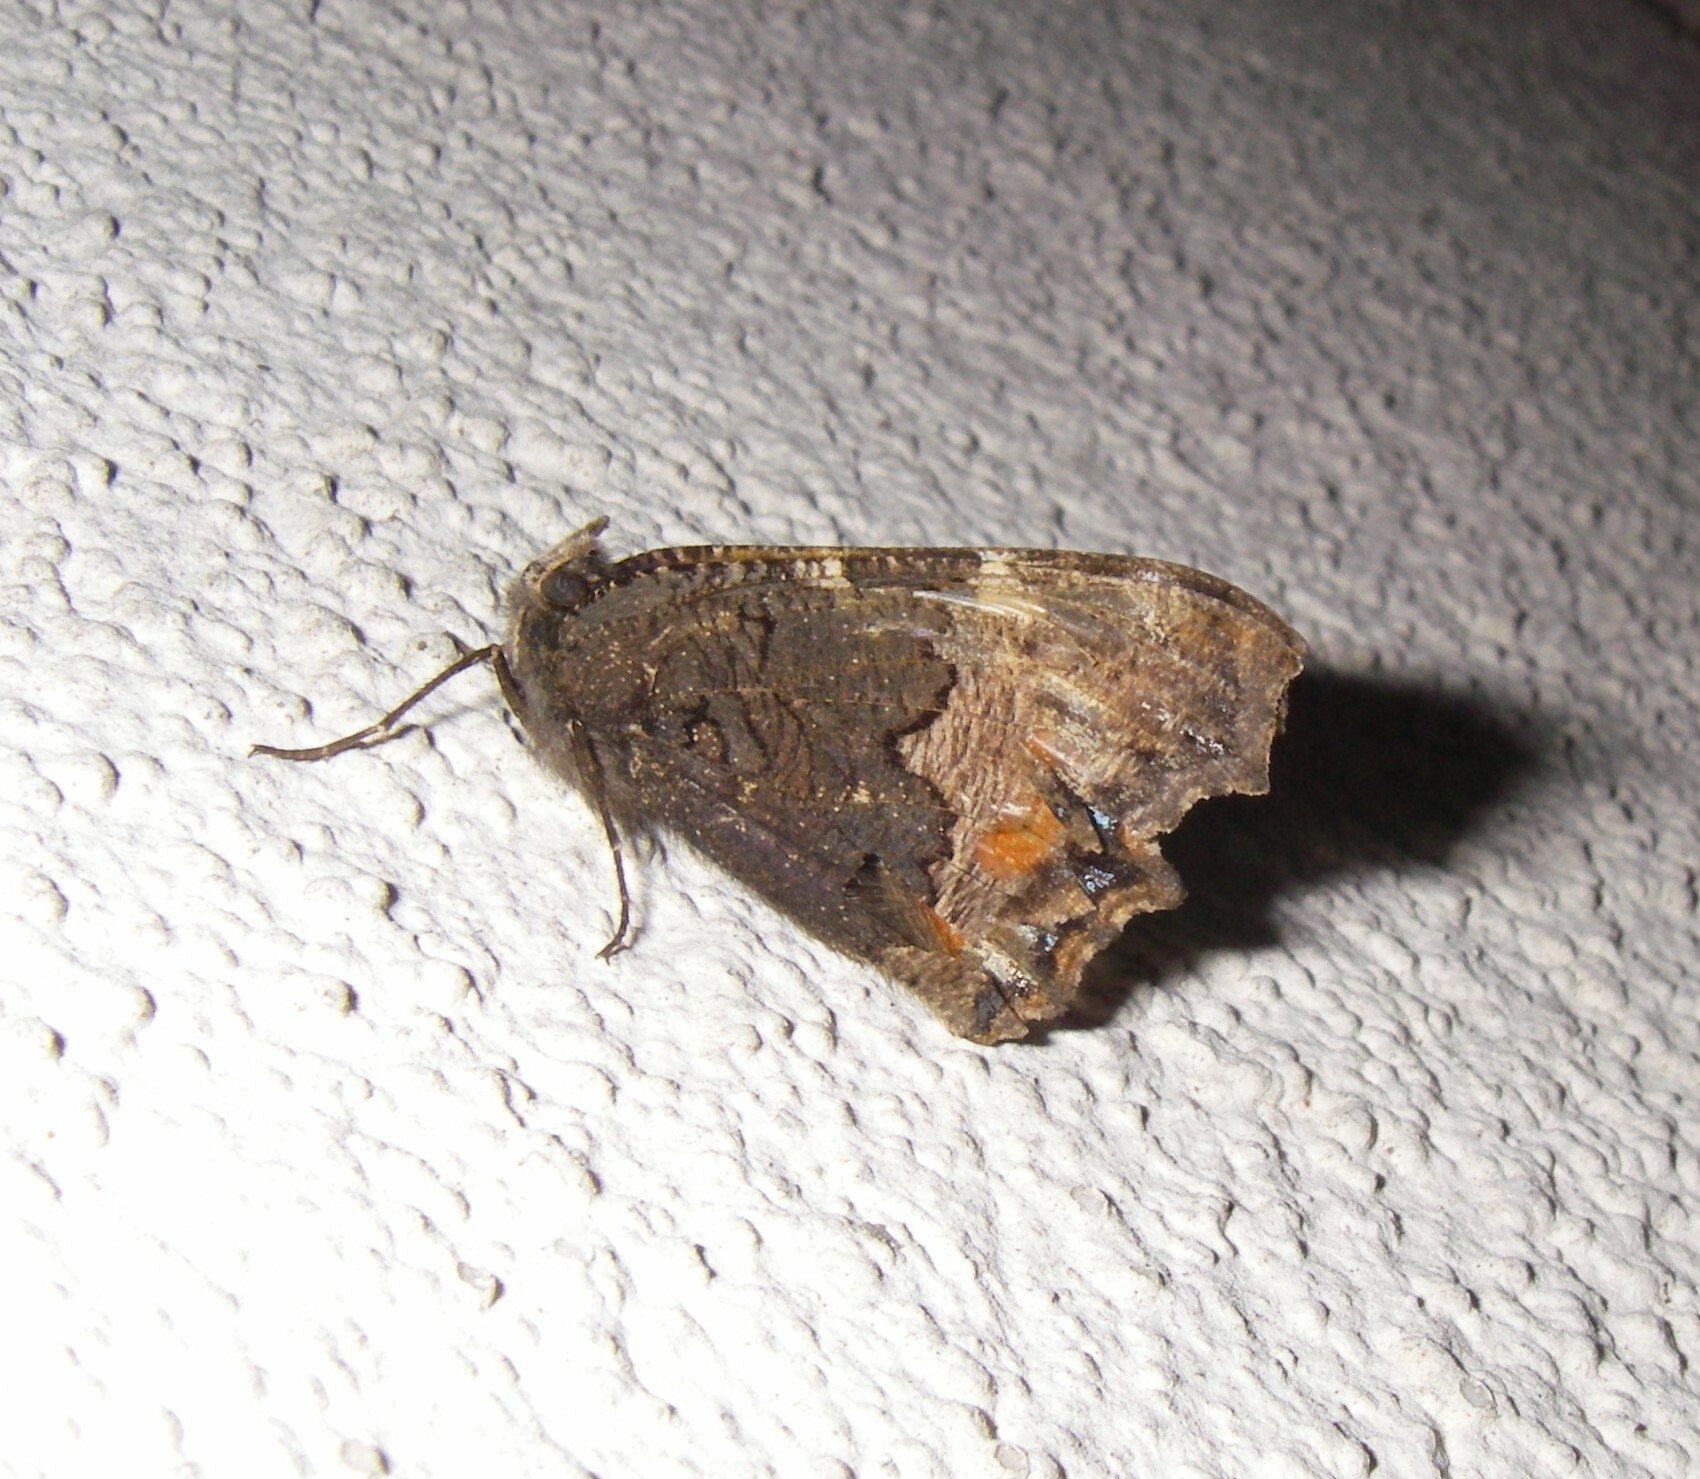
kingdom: Animalia
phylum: Arthropoda
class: Insecta
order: Lepidoptera
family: Nymphalidae
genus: Aglais
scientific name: Aglais urticae
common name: Small tortoiseshell
